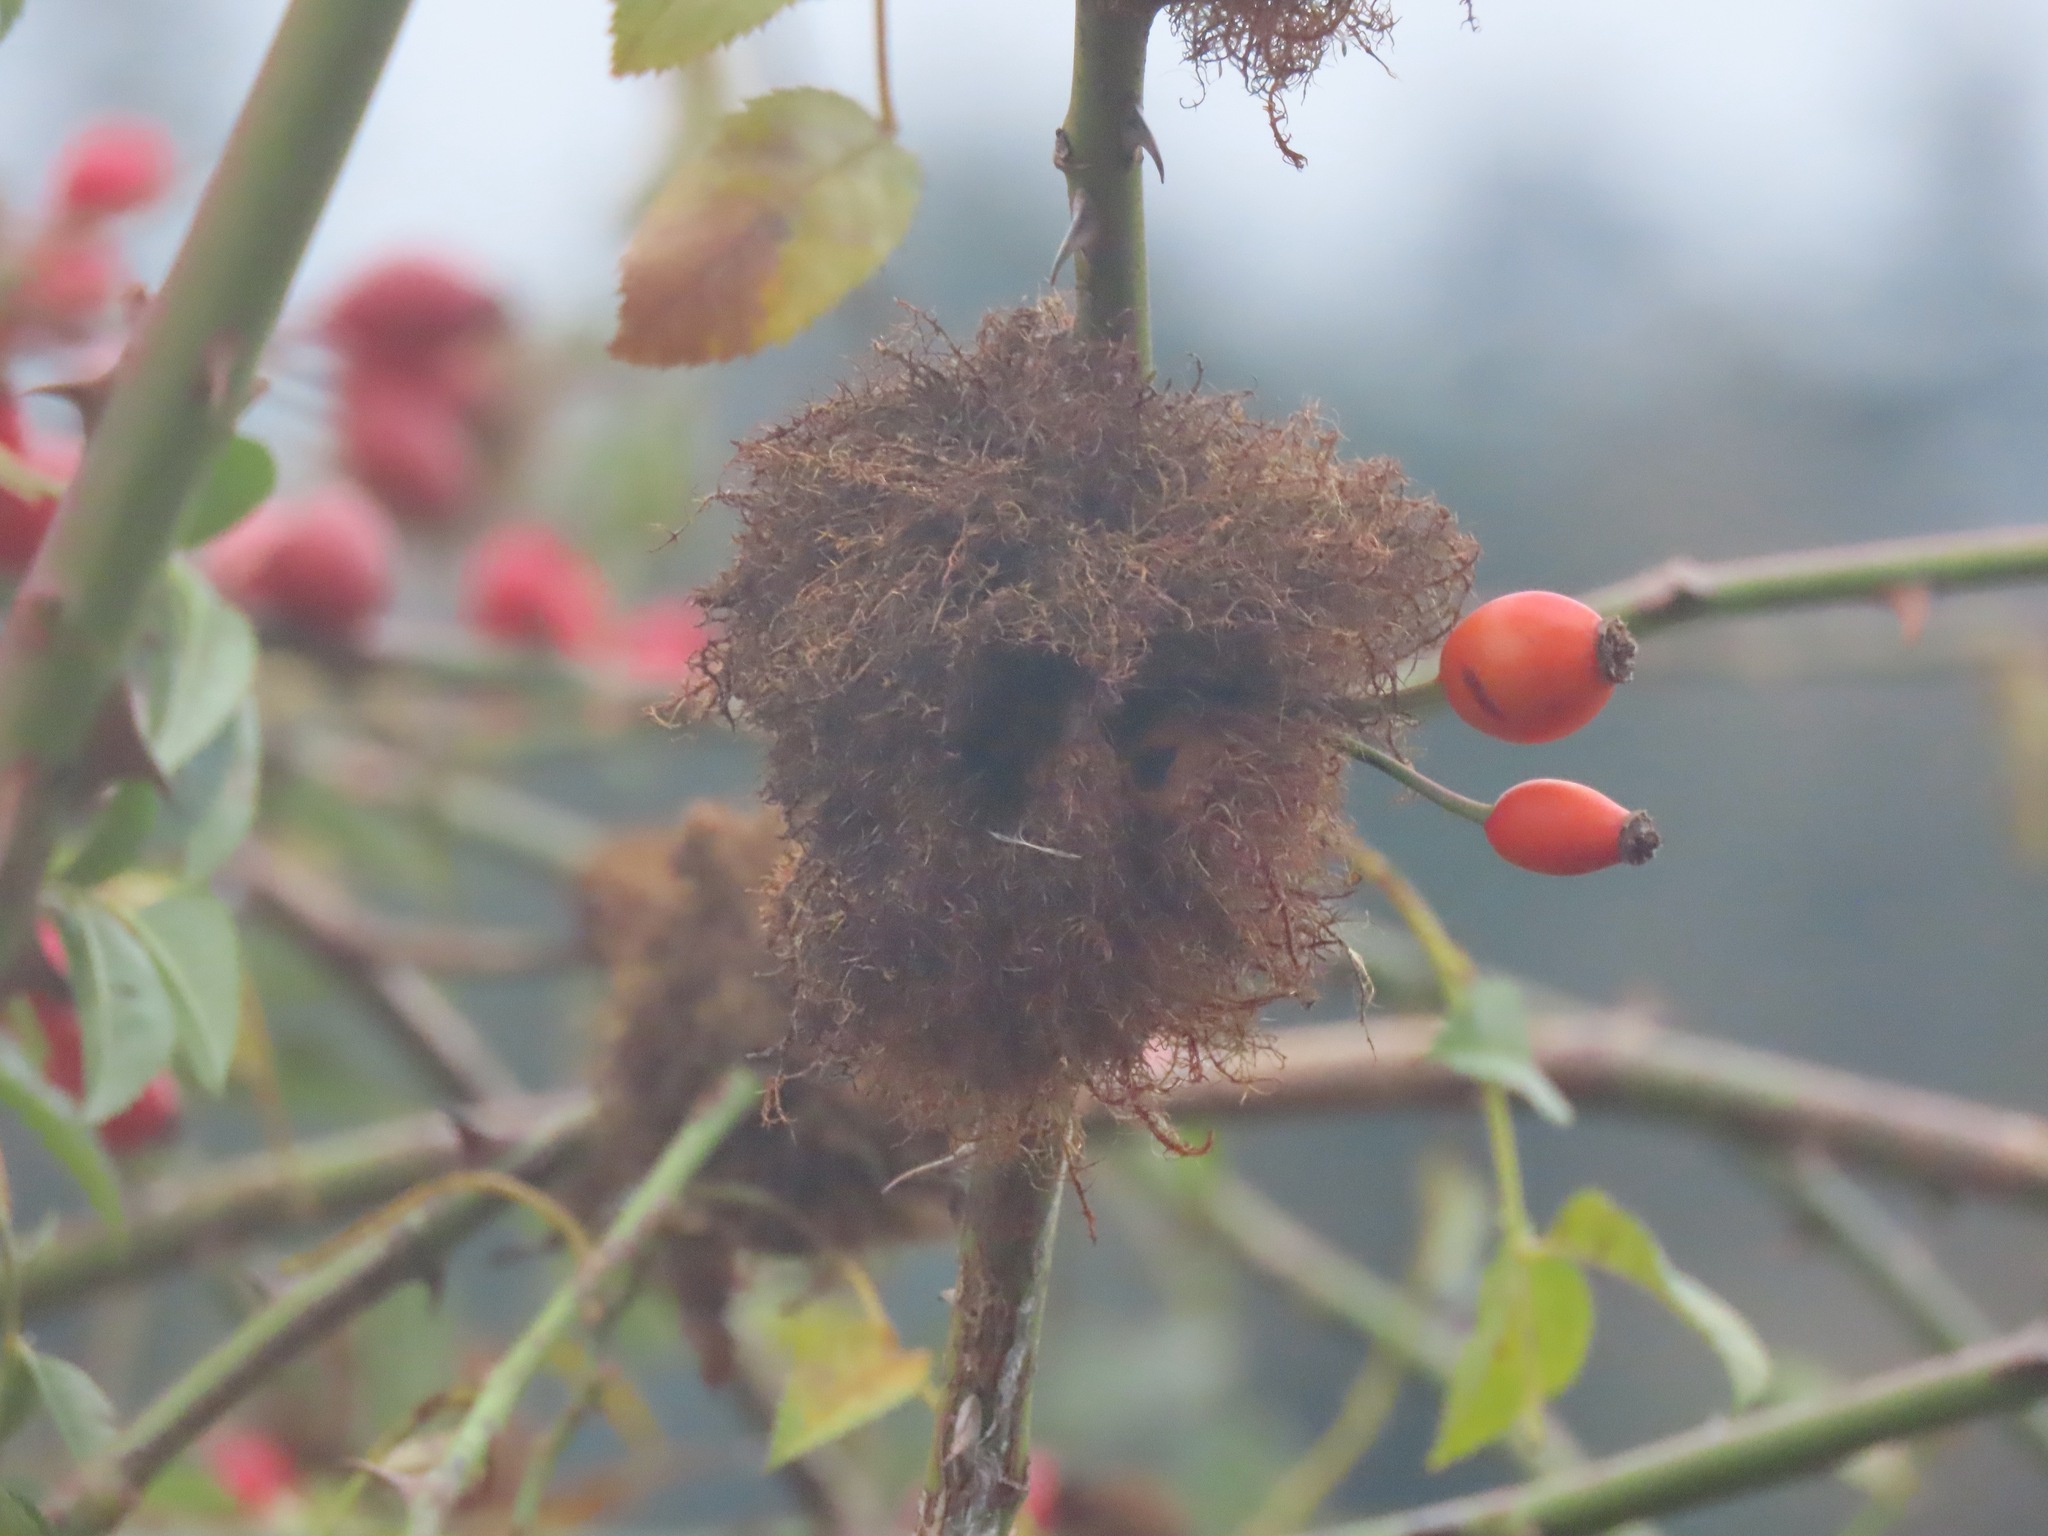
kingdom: Animalia
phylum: Arthropoda
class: Insecta
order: Hymenoptera
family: Cynipidae
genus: Diplolepis
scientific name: Diplolepis rosae
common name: Bedeguar gall
